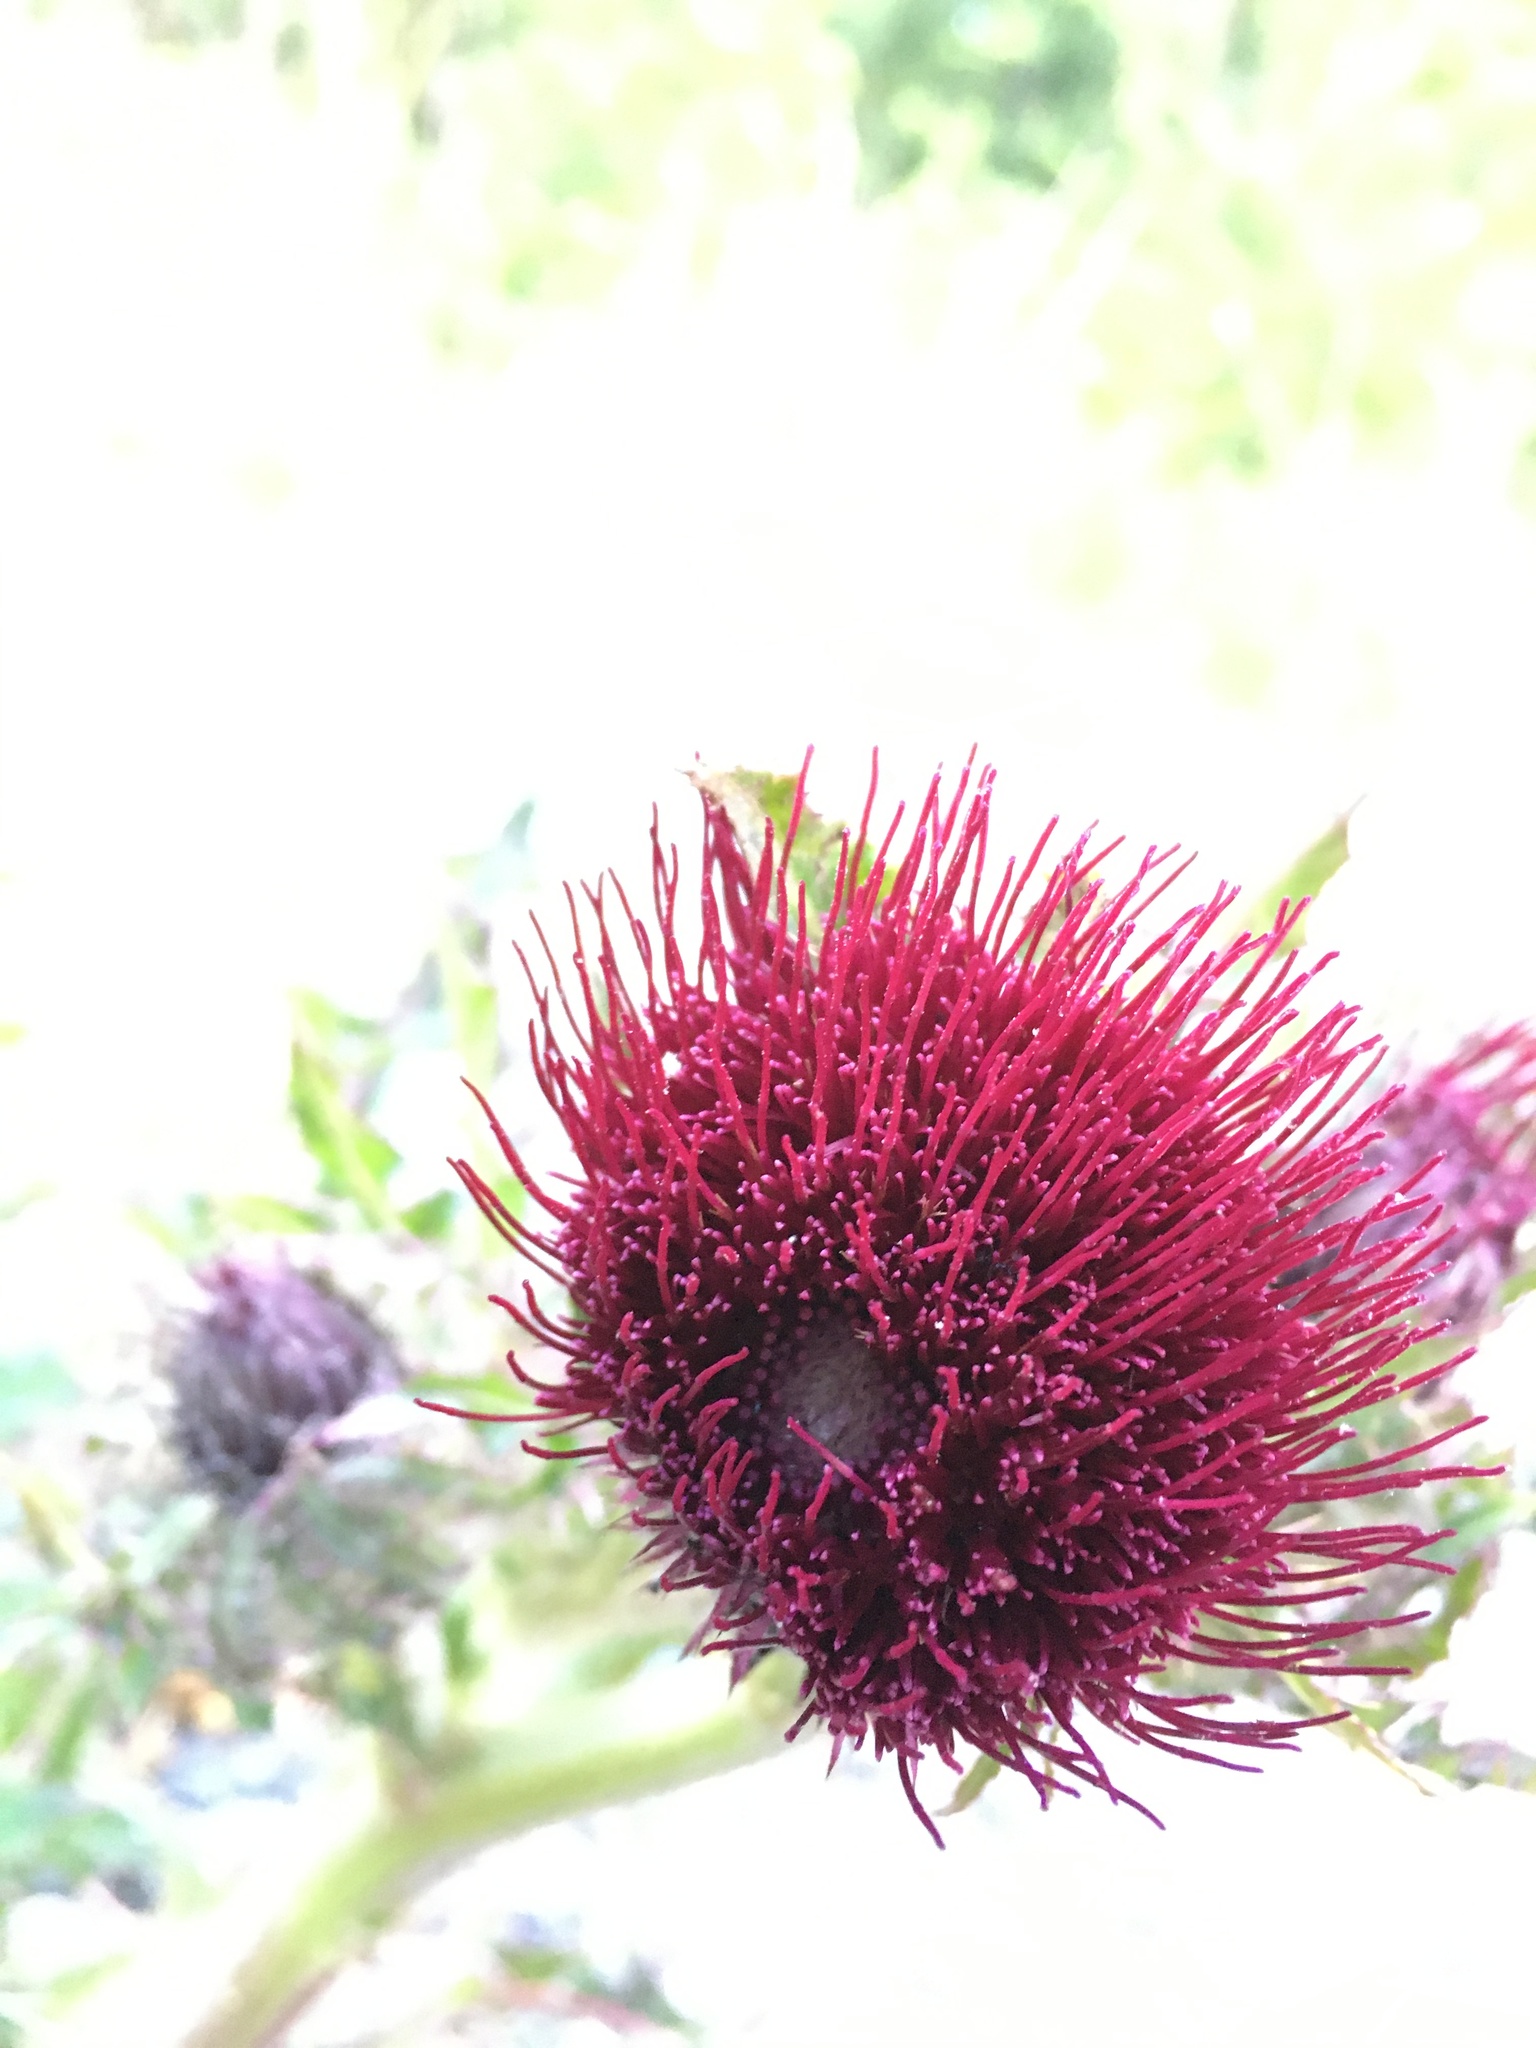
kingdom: Plantae
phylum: Tracheophyta
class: Magnoliopsida
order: Asterales
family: Asteraceae
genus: Cirsium
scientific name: Cirsium horridulum
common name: Bristly thistle
